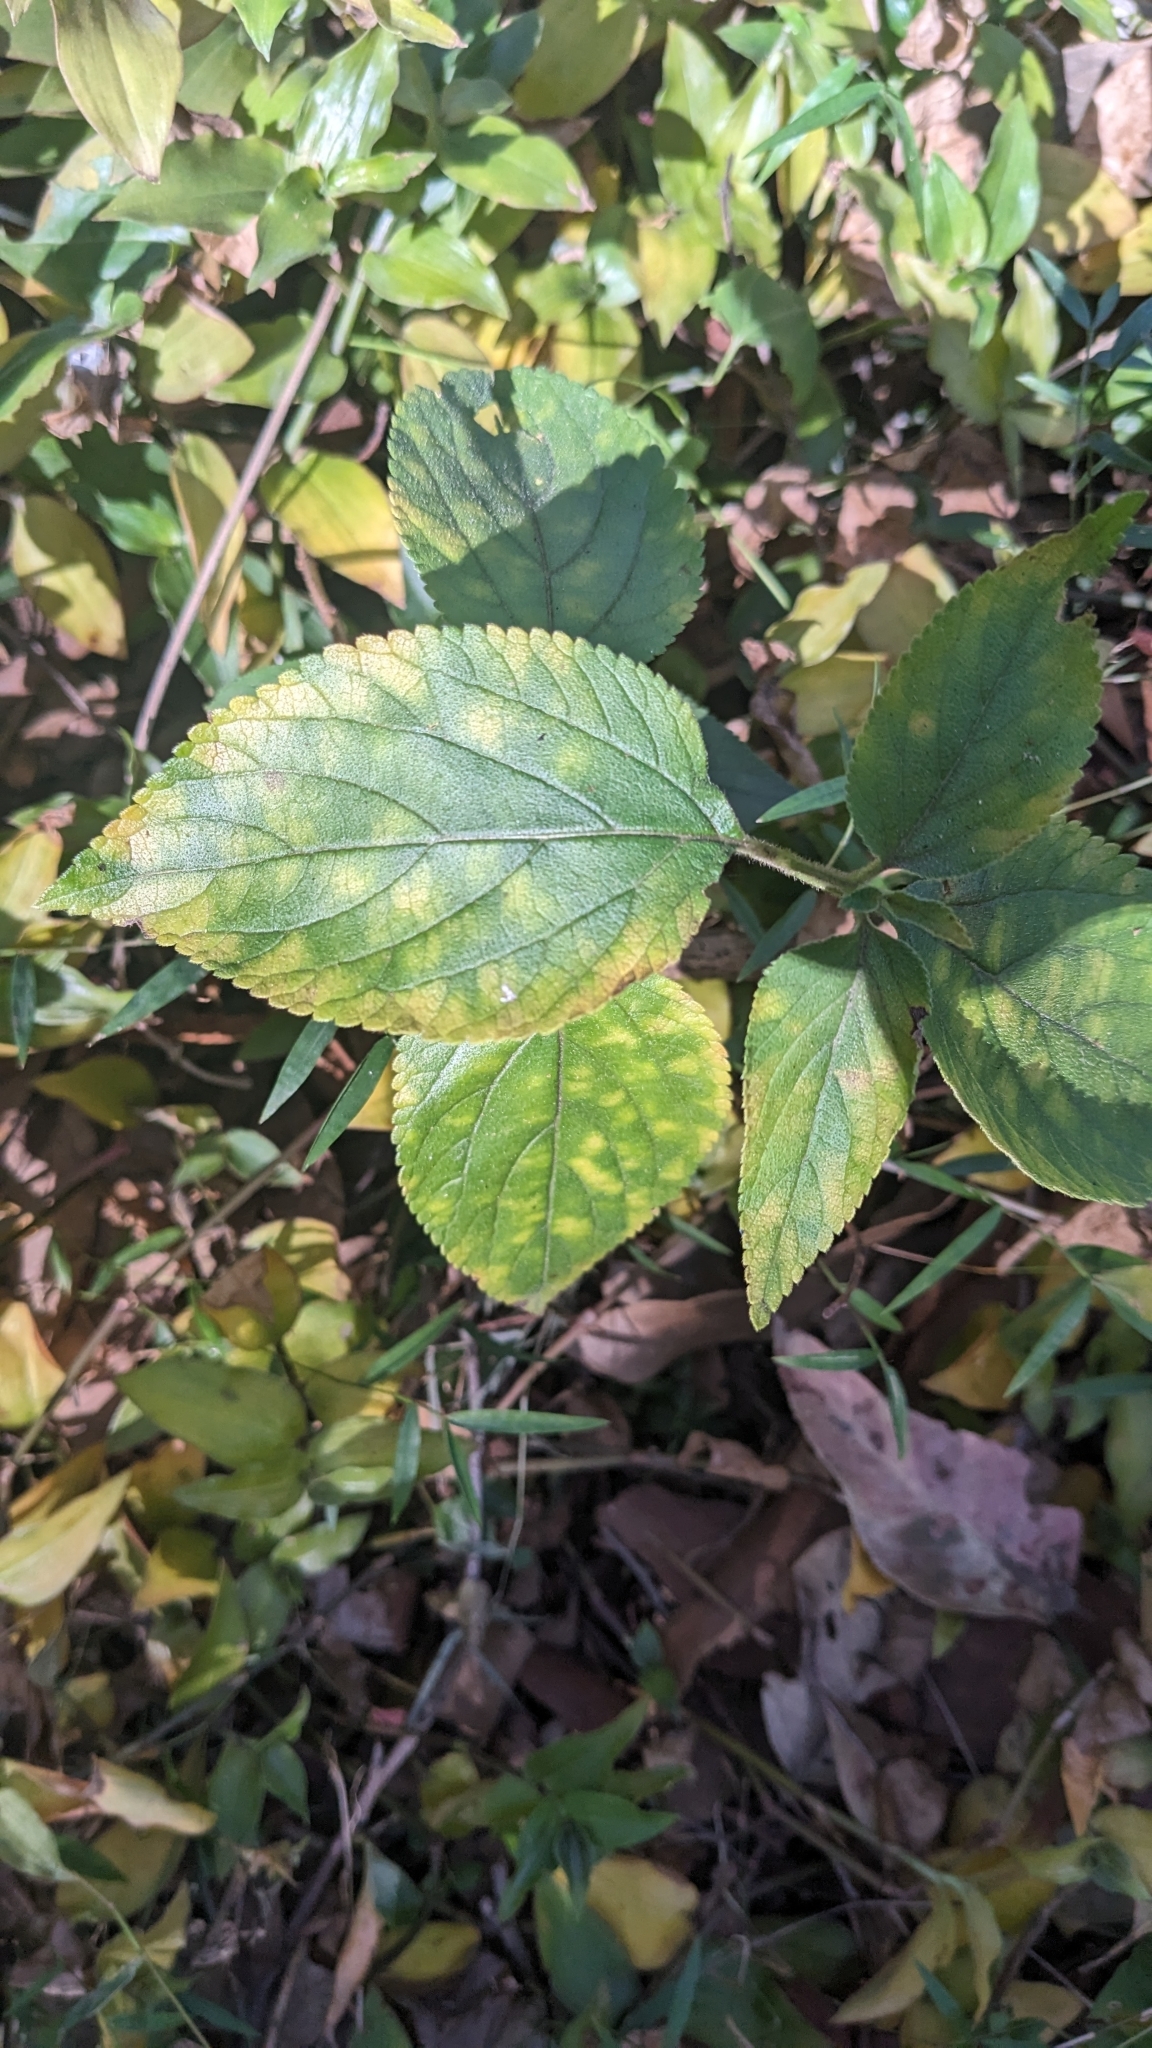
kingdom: Plantae
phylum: Tracheophyta
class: Magnoliopsida
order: Lamiales
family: Verbenaceae
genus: Lantana
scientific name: Lantana camara
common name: Lantana
